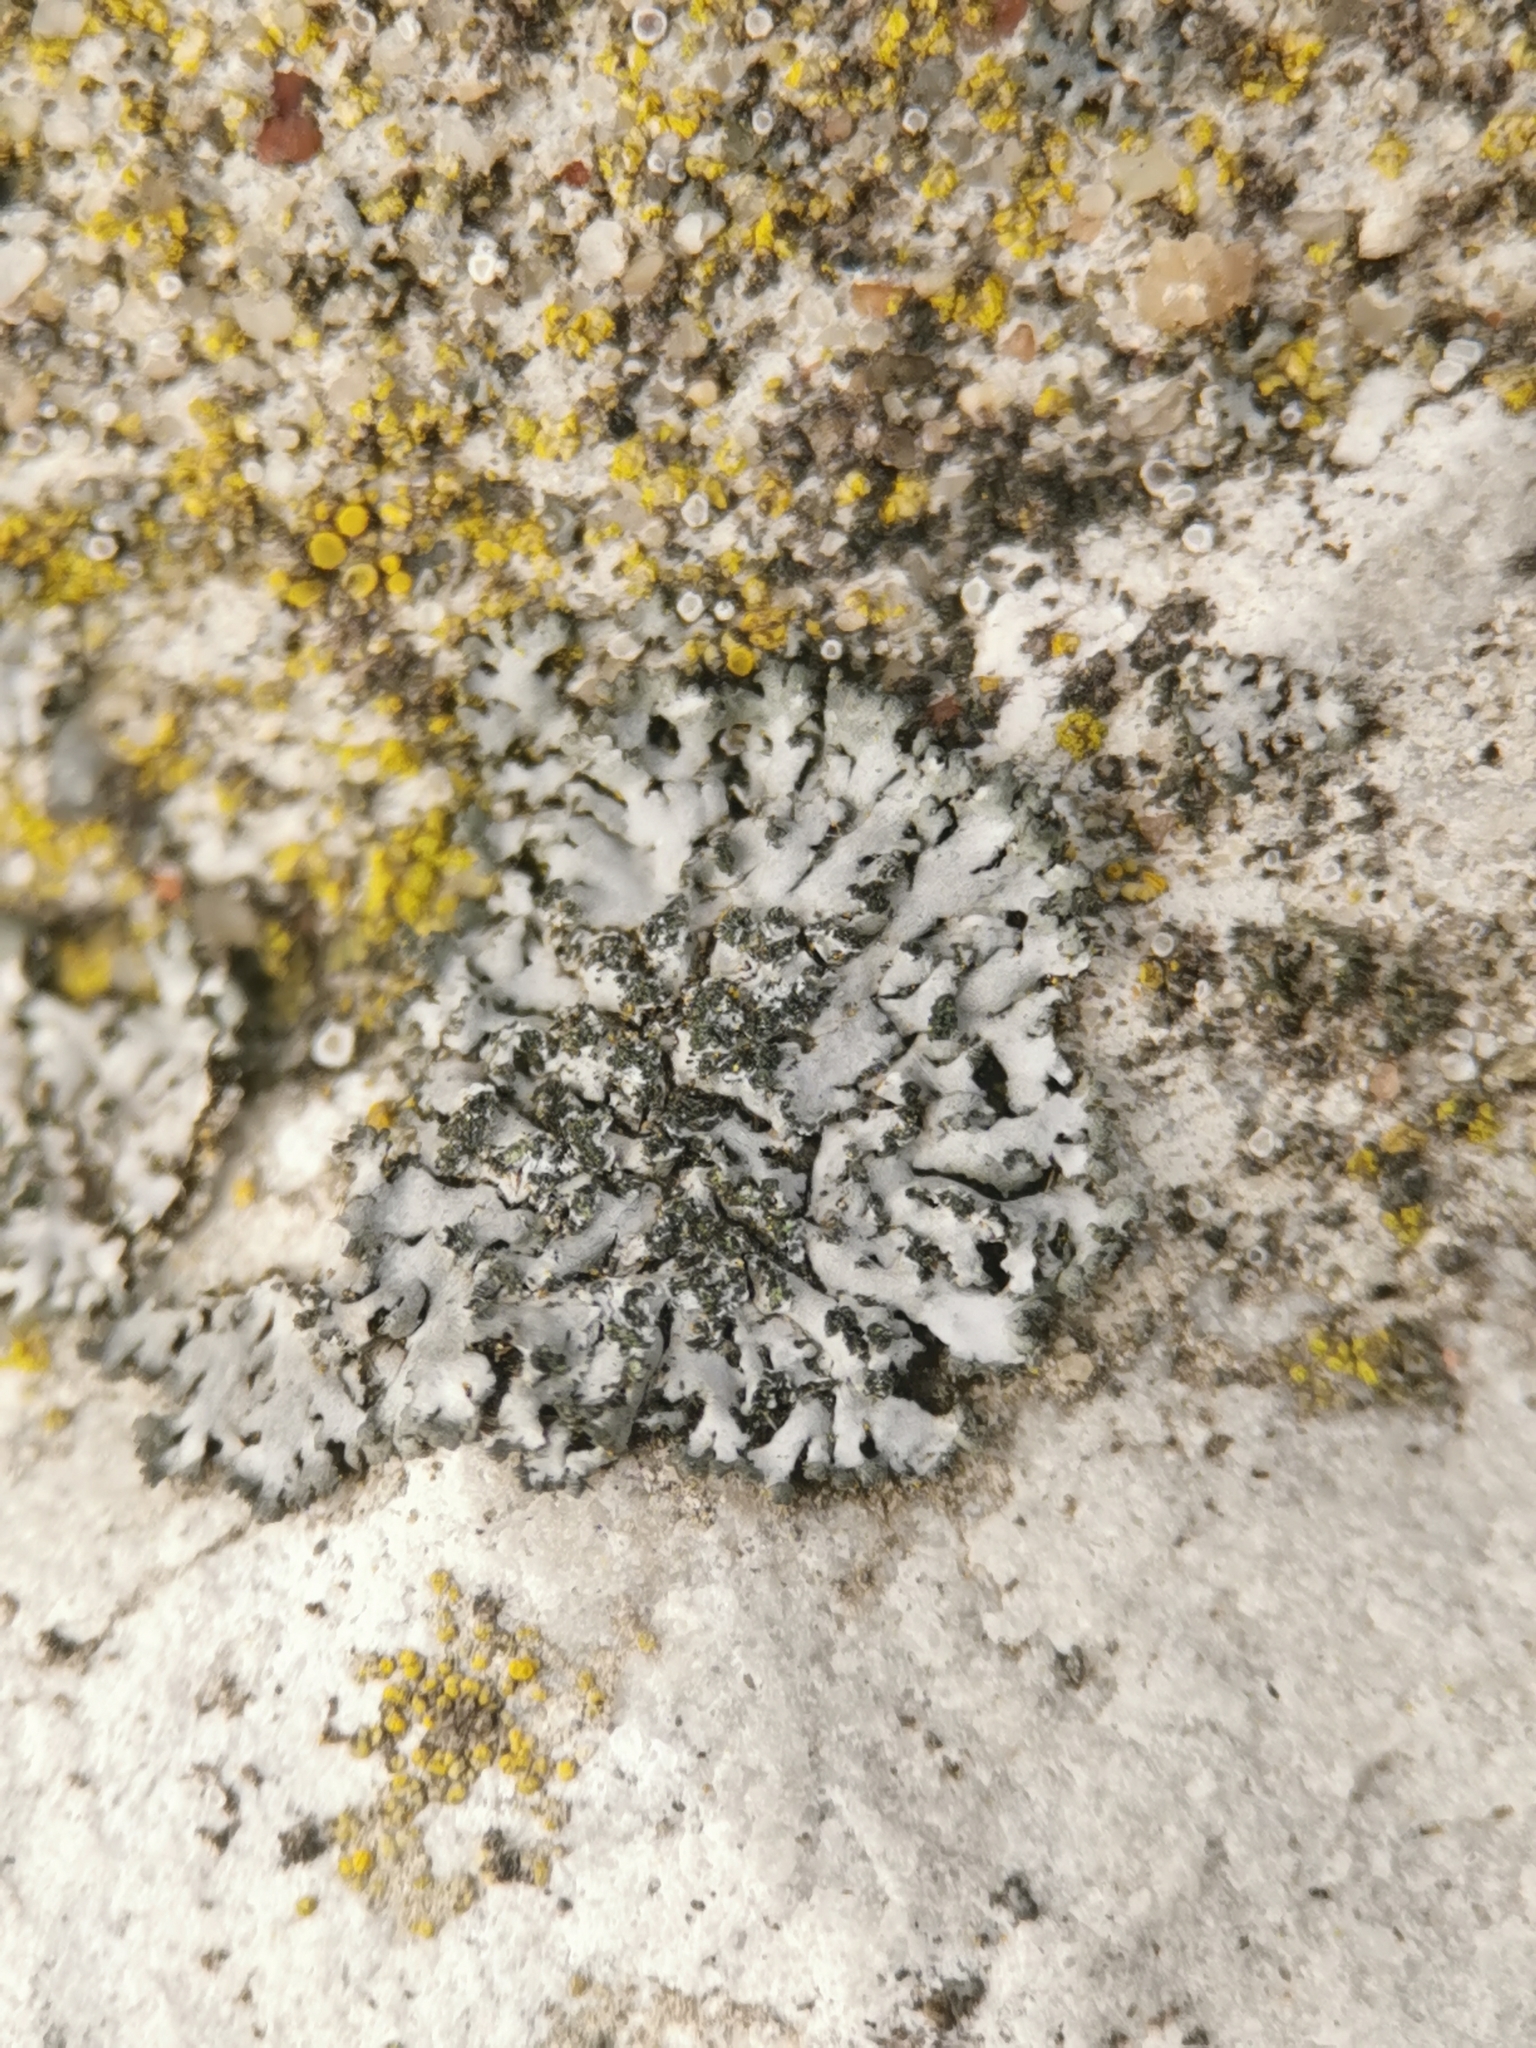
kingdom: Fungi
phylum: Ascomycota
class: Lecanoromycetes
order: Caliciales
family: Physciaceae
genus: Phaeophyscia
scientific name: Phaeophyscia orbicularis
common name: Mealy shadow lichen
